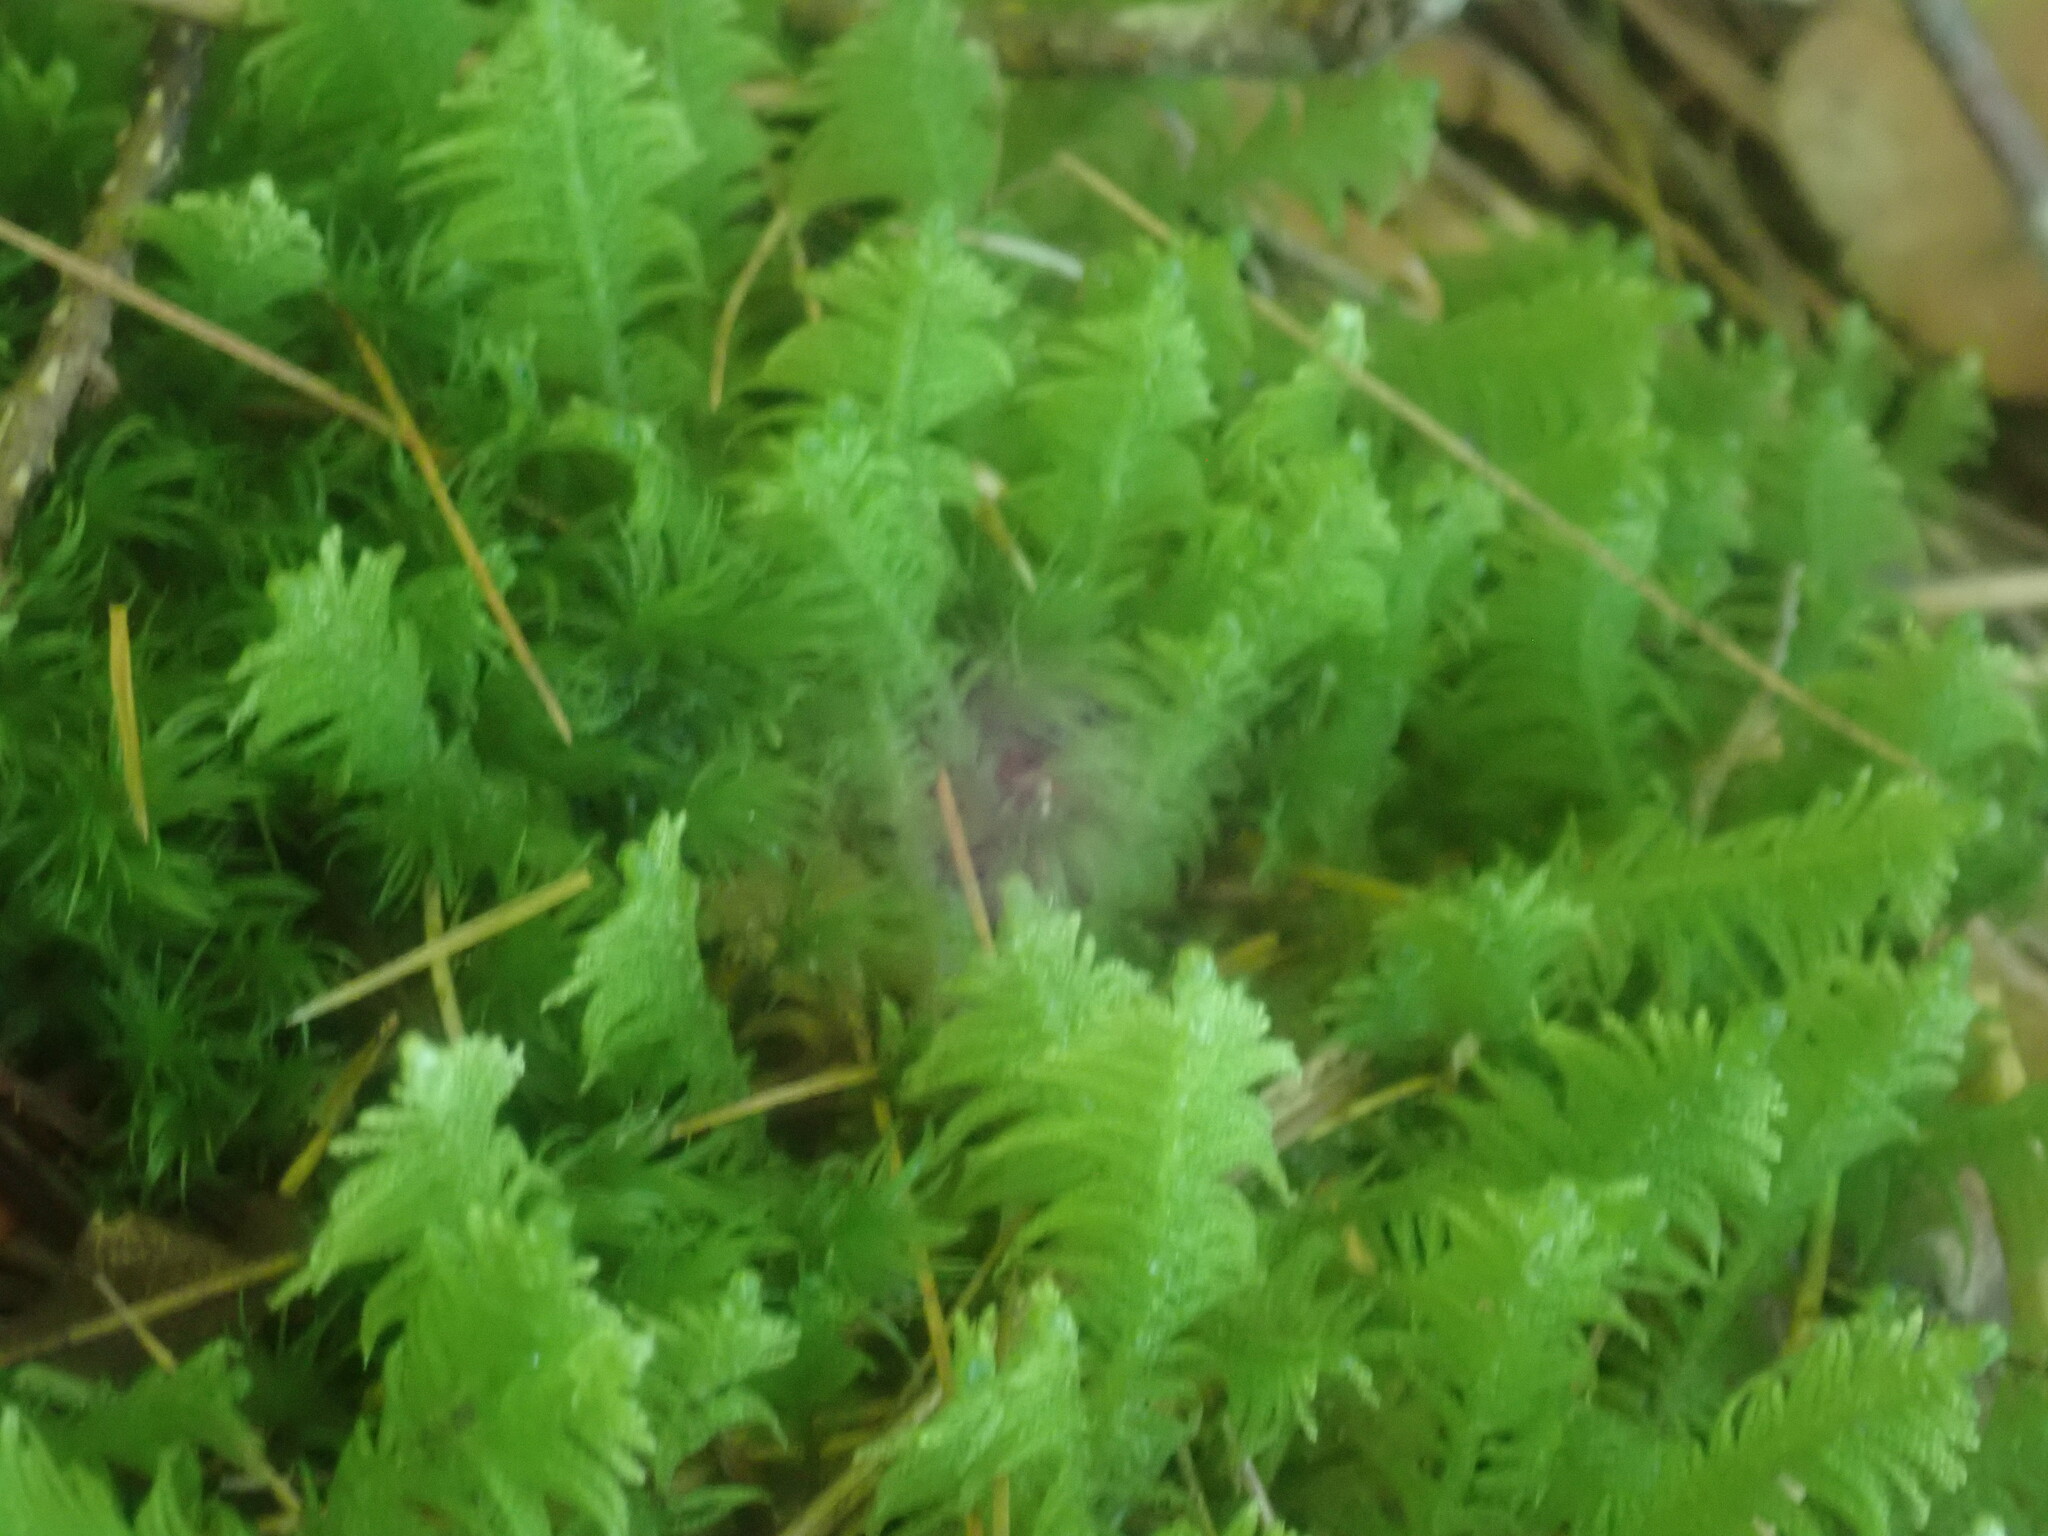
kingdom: Plantae
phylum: Bryophyta
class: Bryopsida
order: Hypnales
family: Pylaisiaceae
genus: Ptilium
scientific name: Ptilium crista-castrensis
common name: Knight's plume moss
